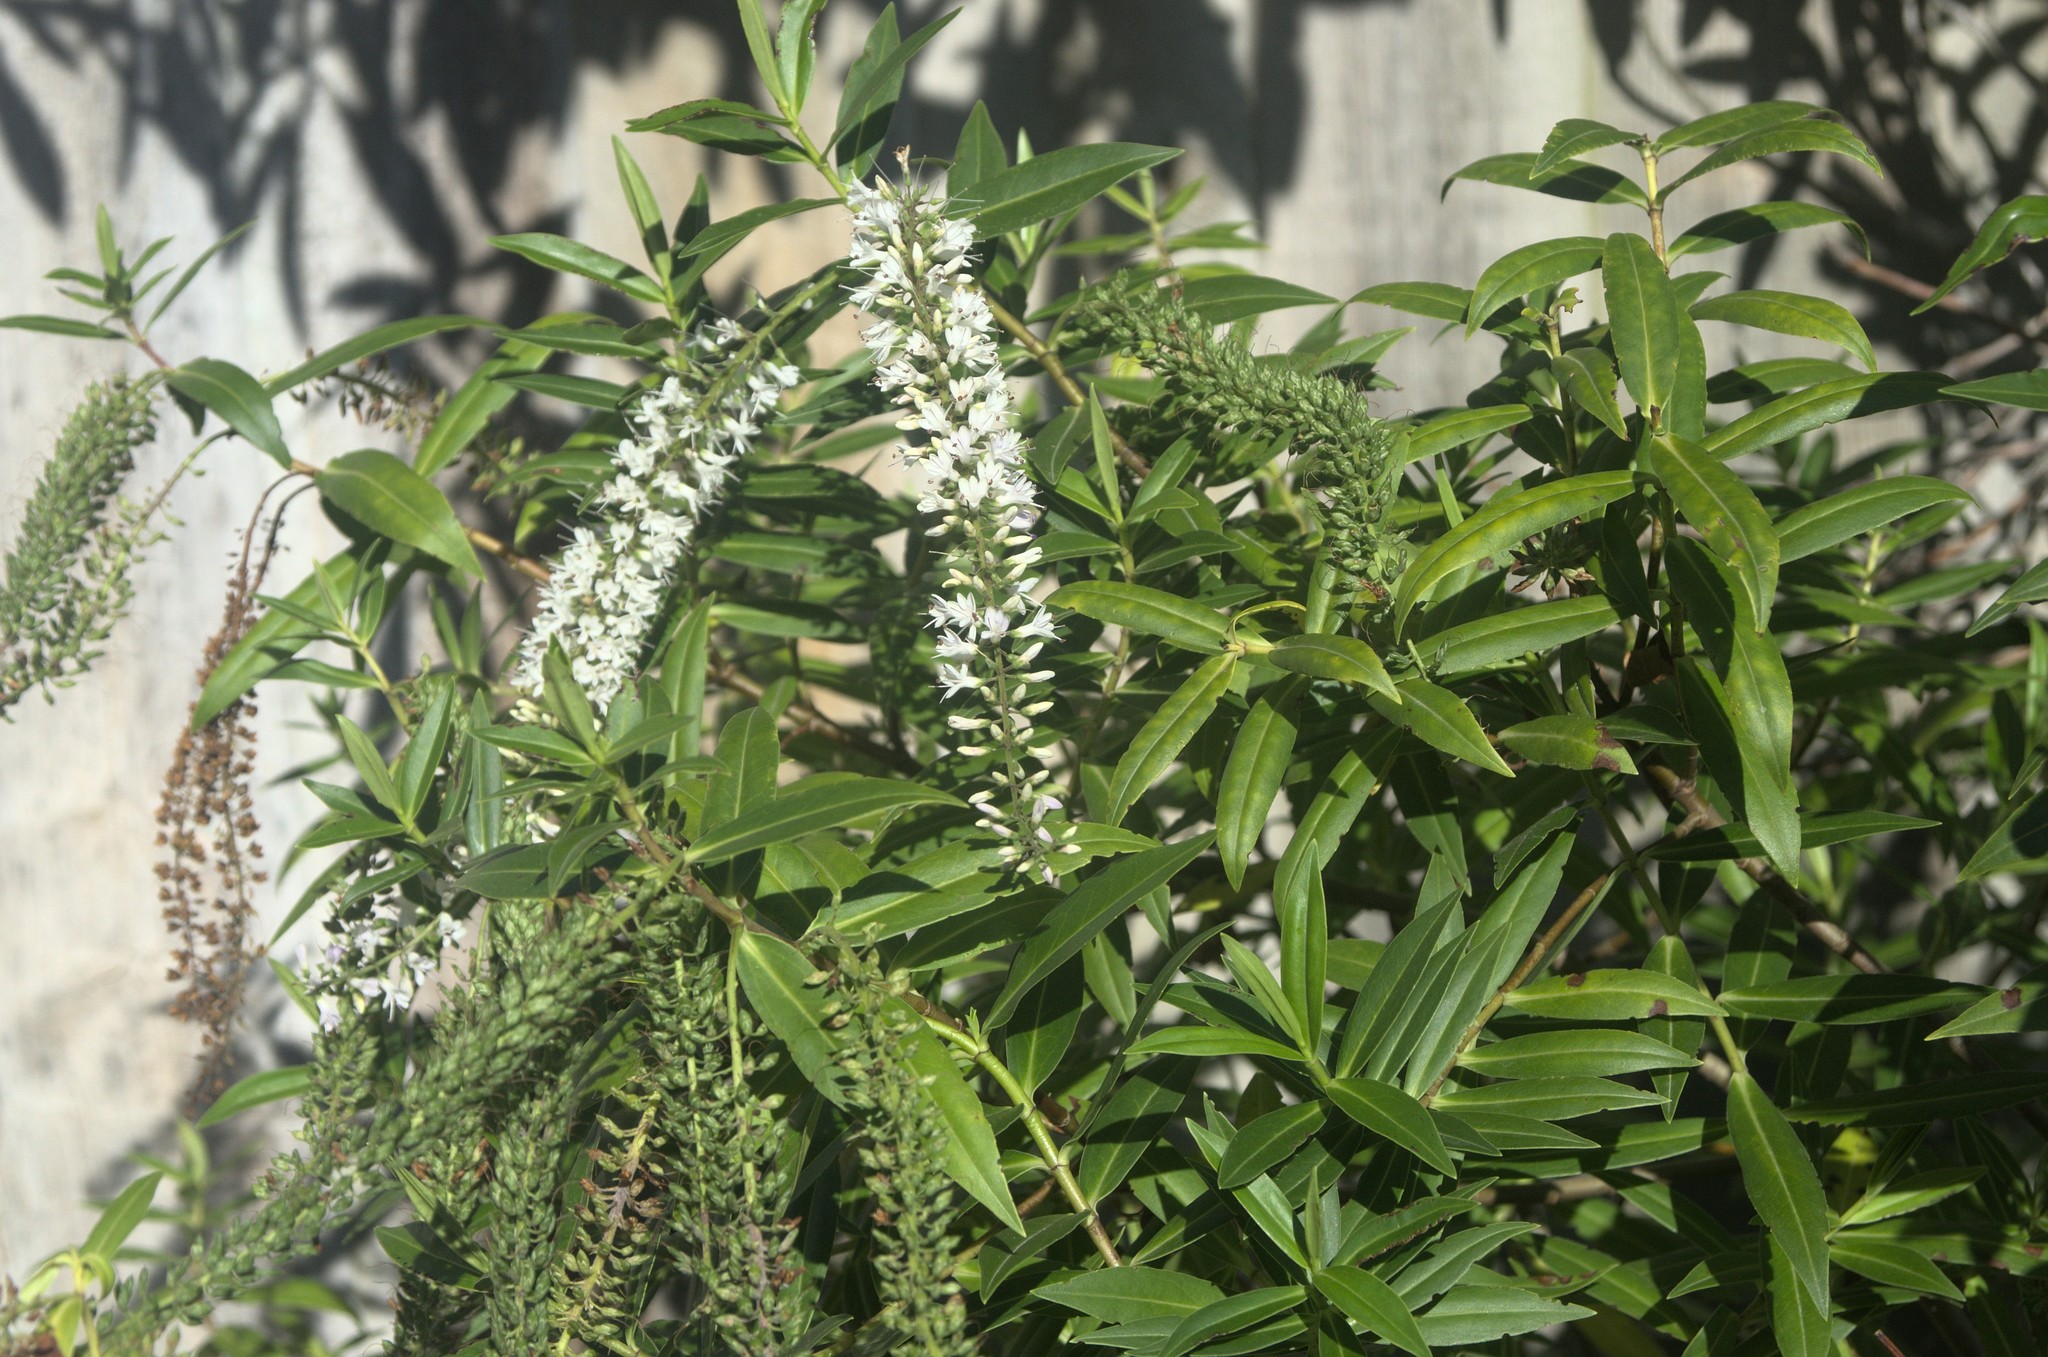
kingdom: Plantae
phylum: Tracheophyta
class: Magnoliopsida
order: Lamiales
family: Plantaginaceae
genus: Veronica
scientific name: Veronica salicifolia
